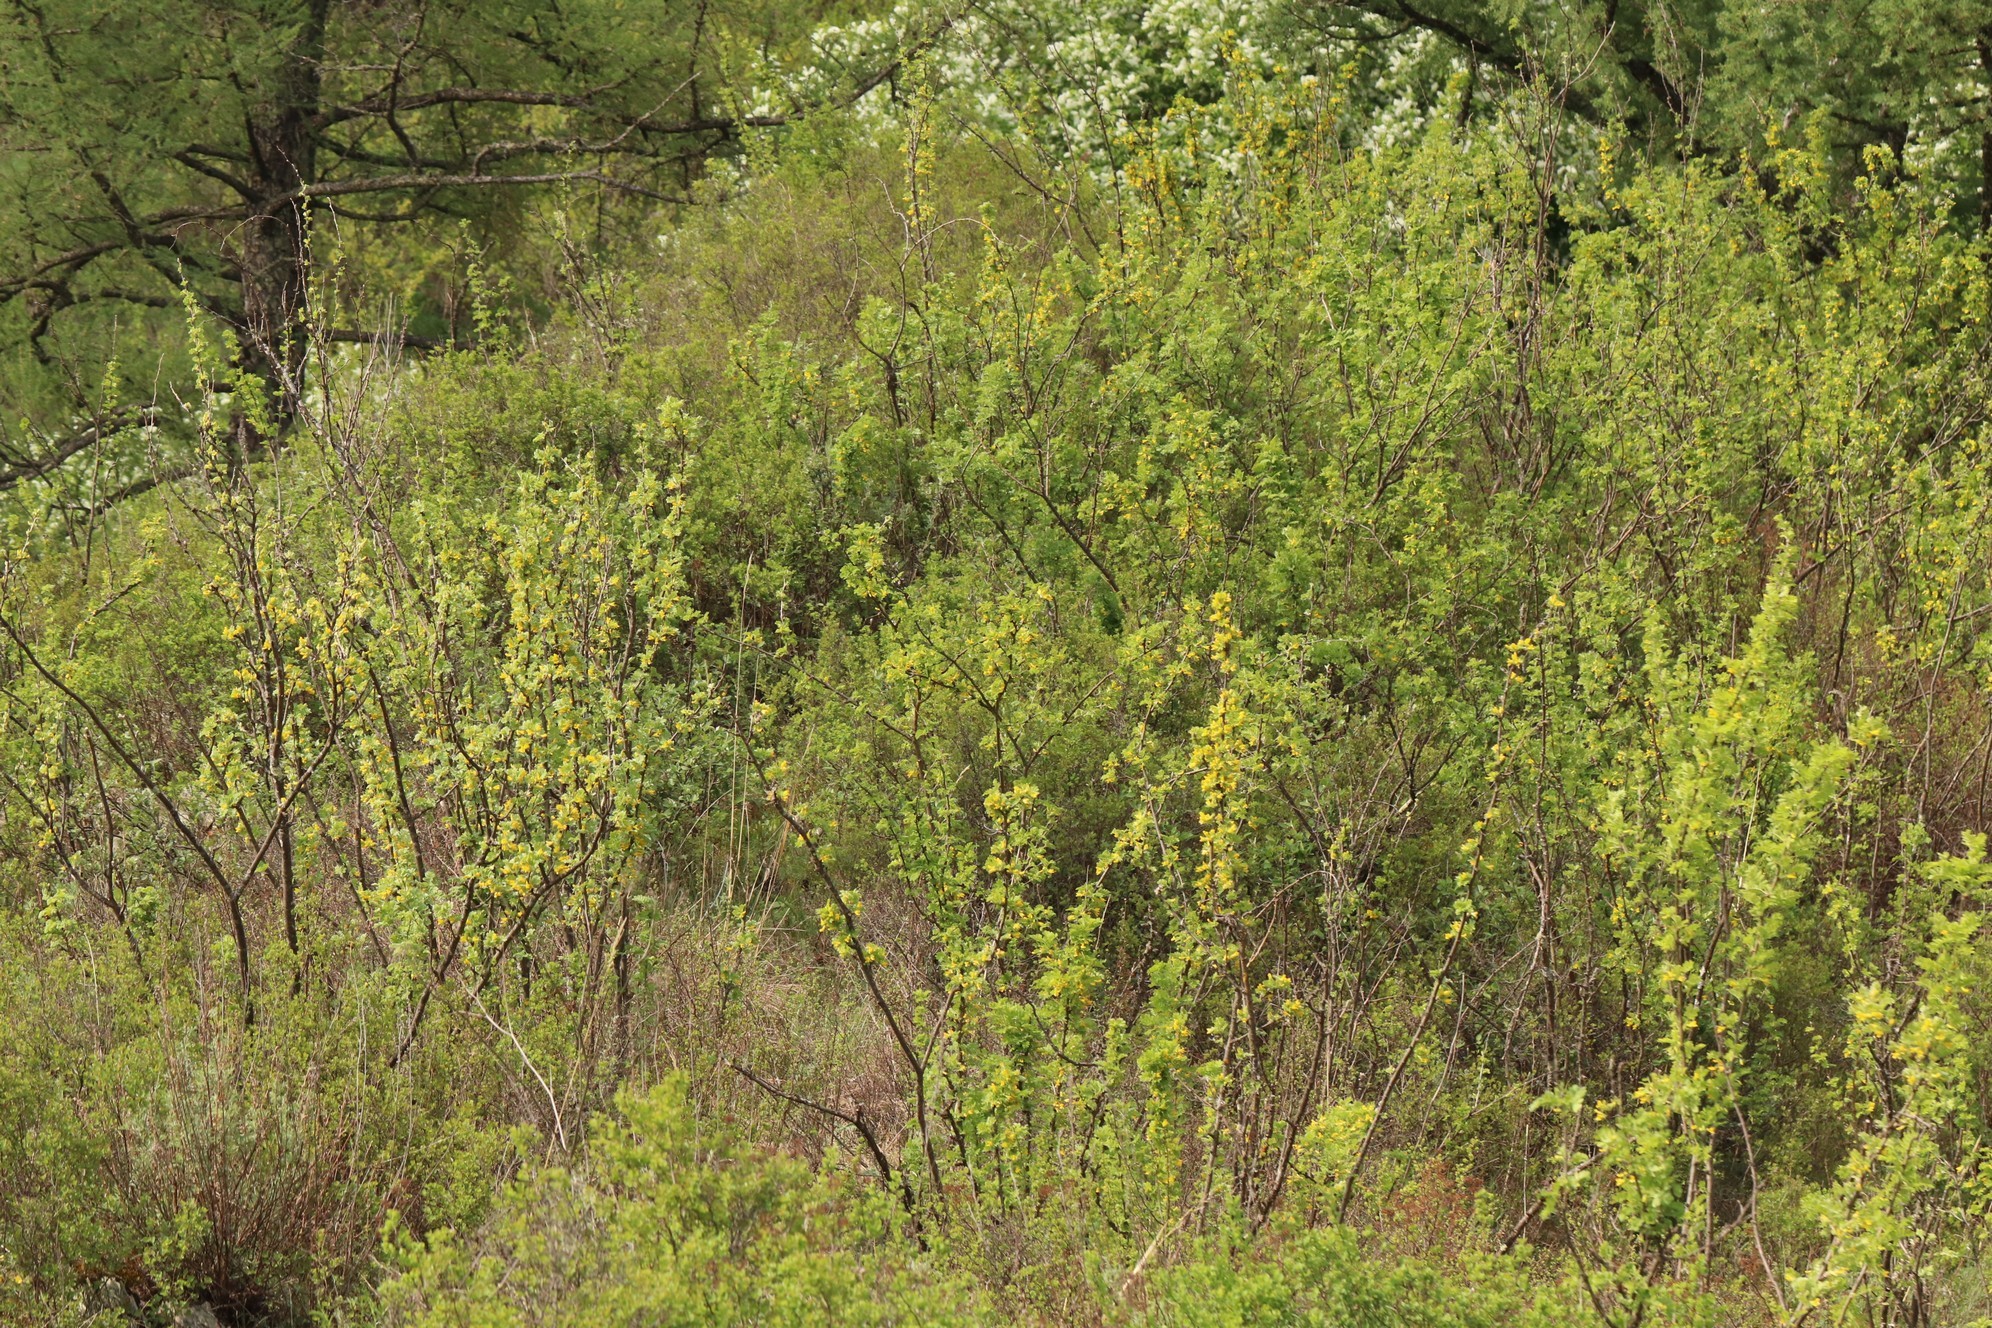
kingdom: Plantae
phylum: Tracheophyta
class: Magnoliopsida
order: Fabales
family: Fabaceae
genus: Caragana
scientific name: Caragana arborescens
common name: Siberian peashrub
